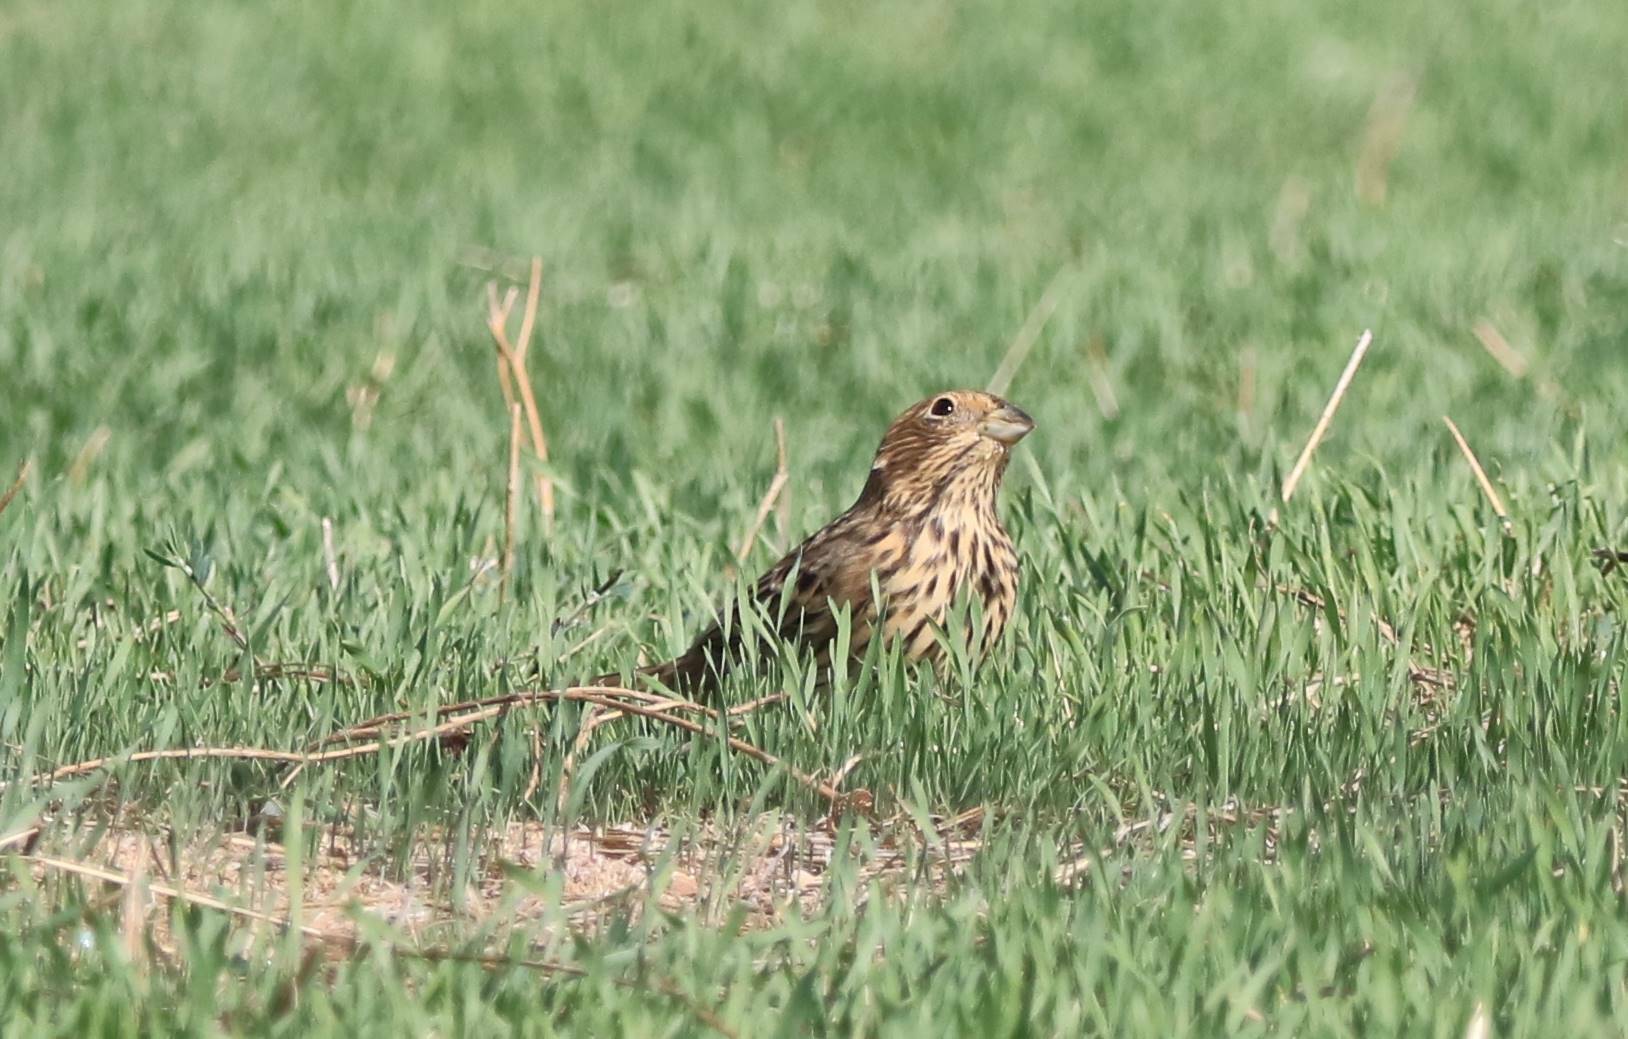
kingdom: Animalia
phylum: Chordata
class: Aves
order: Passeriformes
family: Emberizidae
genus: Emberiza
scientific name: Emberiza calandra
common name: Corn bunting
